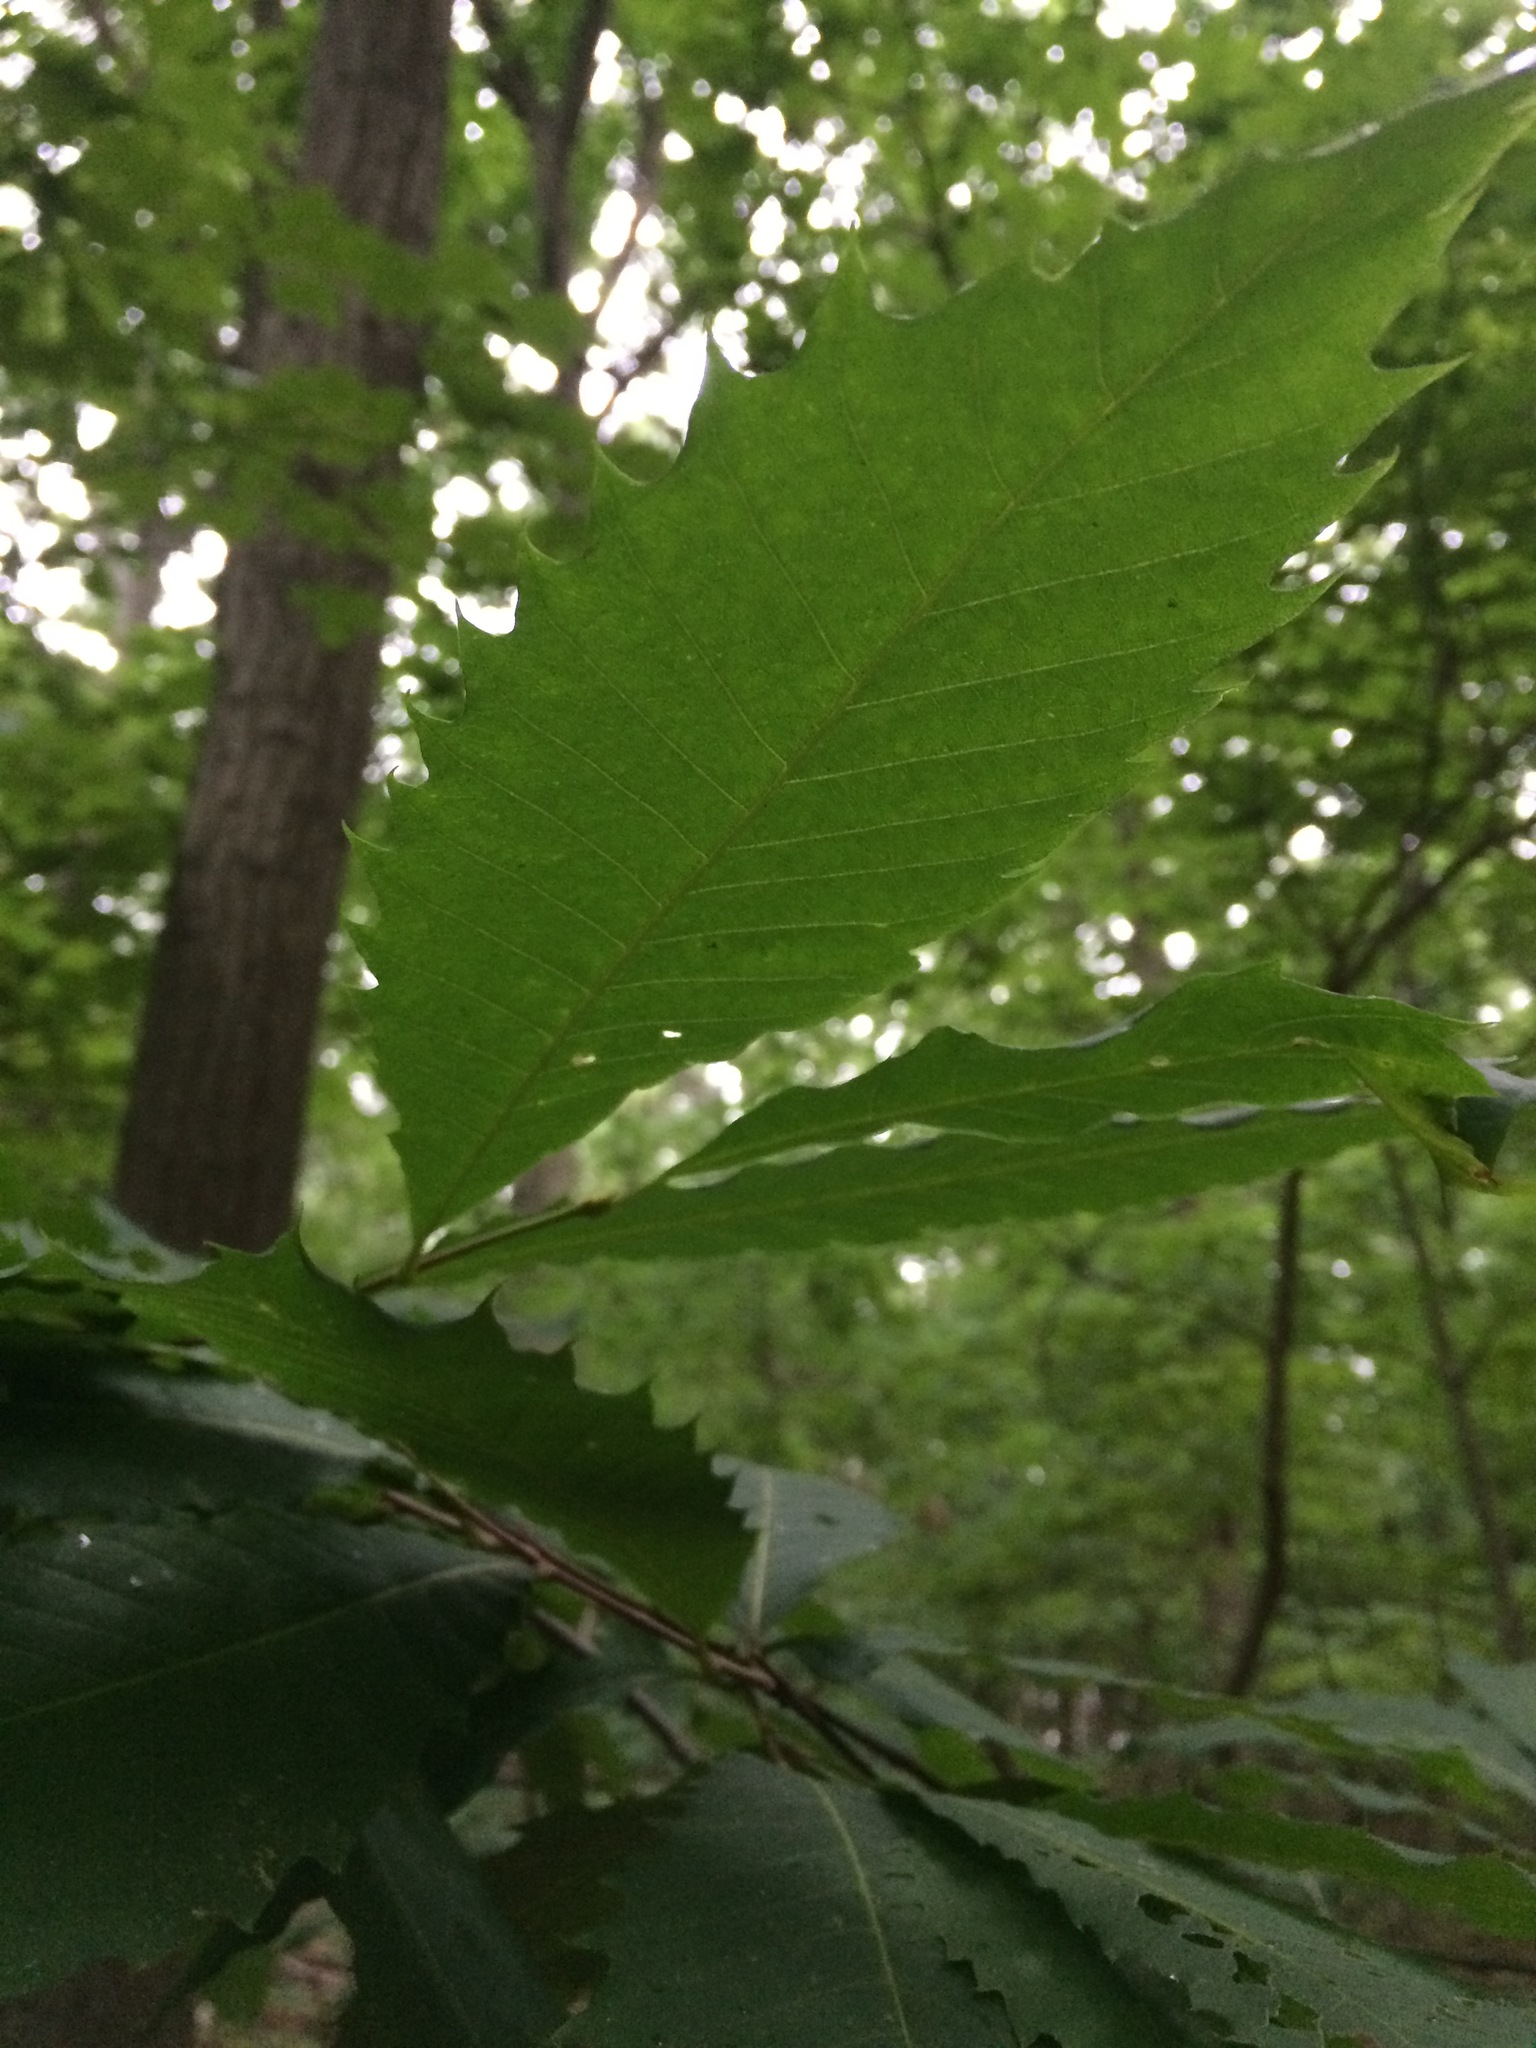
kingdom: Plantae
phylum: Tracheophyta
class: Magnoliopsida
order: Fagales
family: Fagaceae
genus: Castanea
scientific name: Castanea dentata
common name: American chestnut
